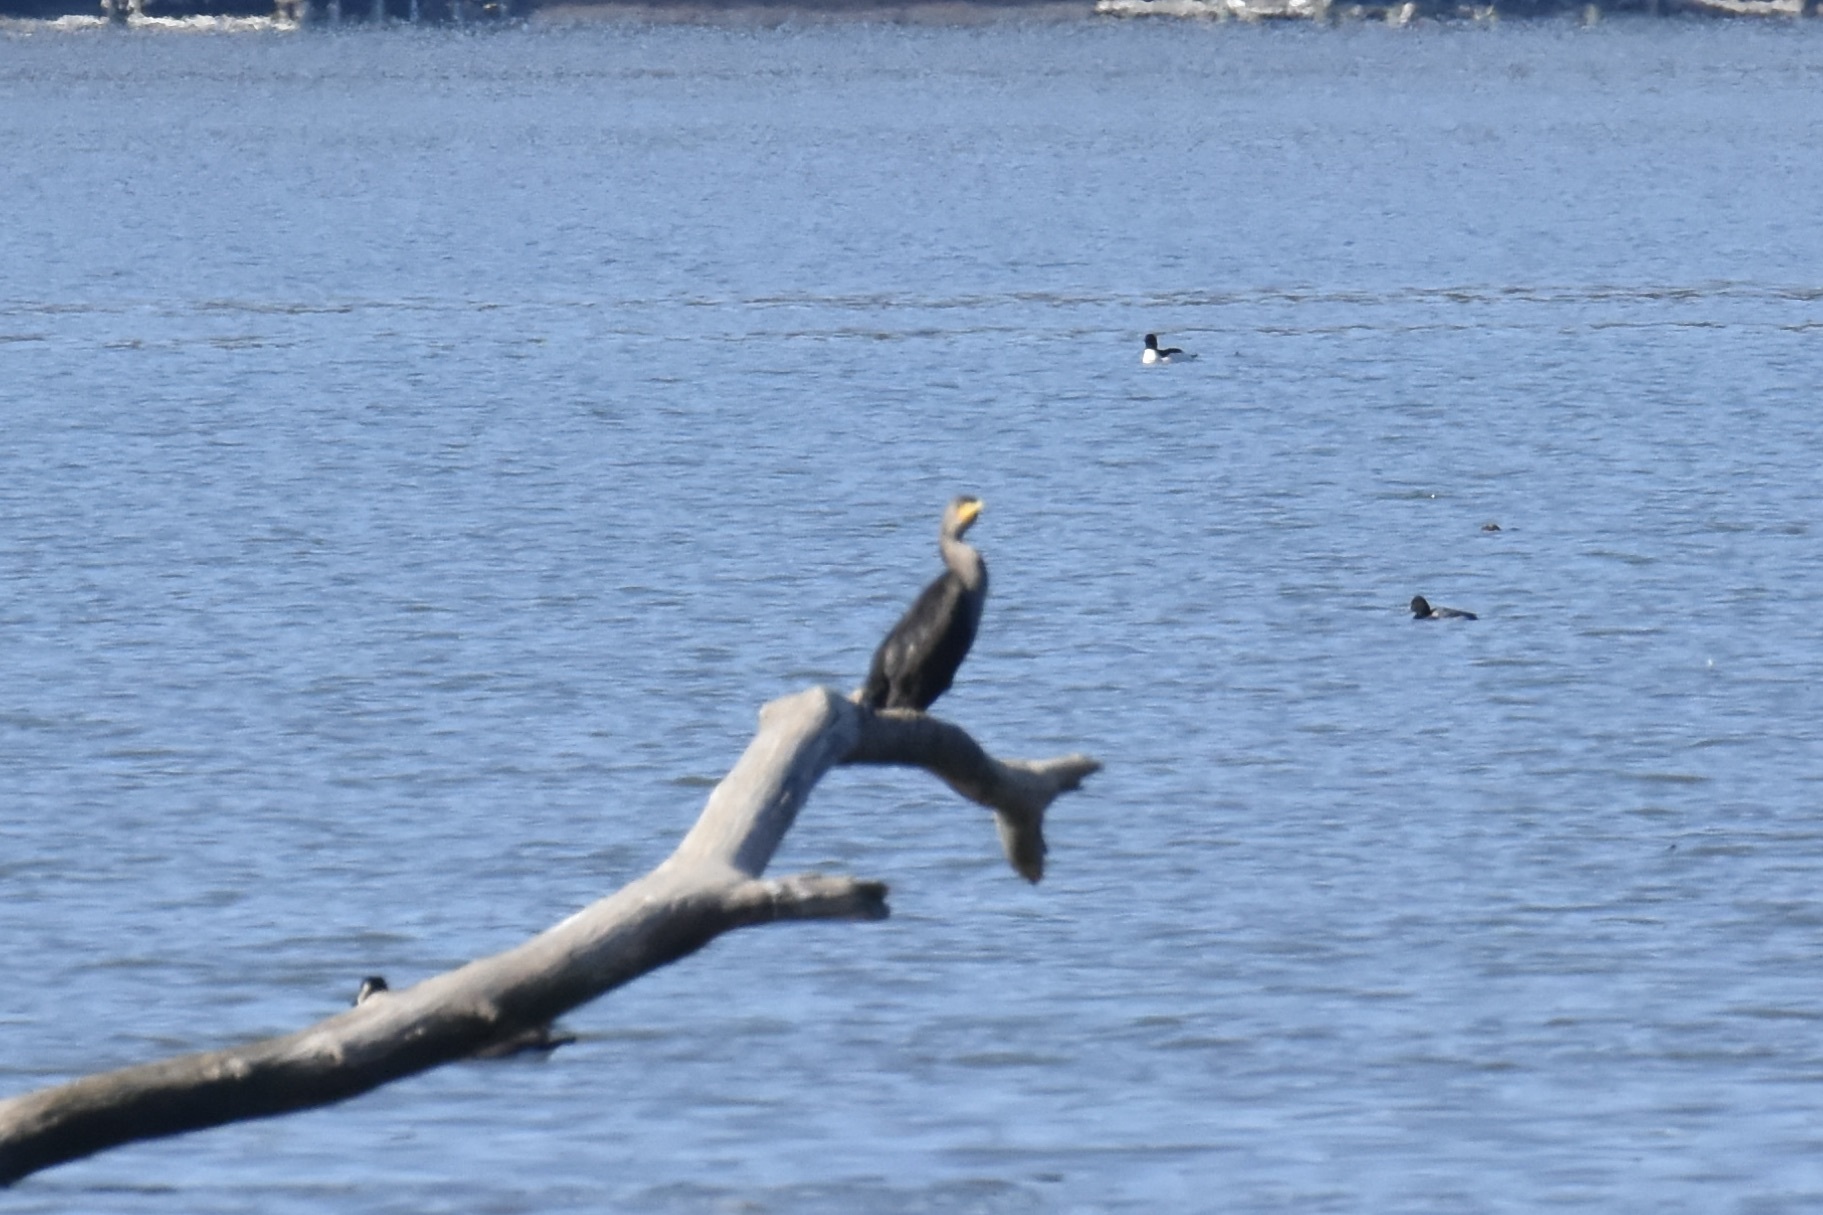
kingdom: Animalia
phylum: Chordata
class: Aves
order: Suliformes
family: Phalacrocoracidae
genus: Phalacrocorax
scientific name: Phalacrocorax auritus
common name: Double-crested cormorant
